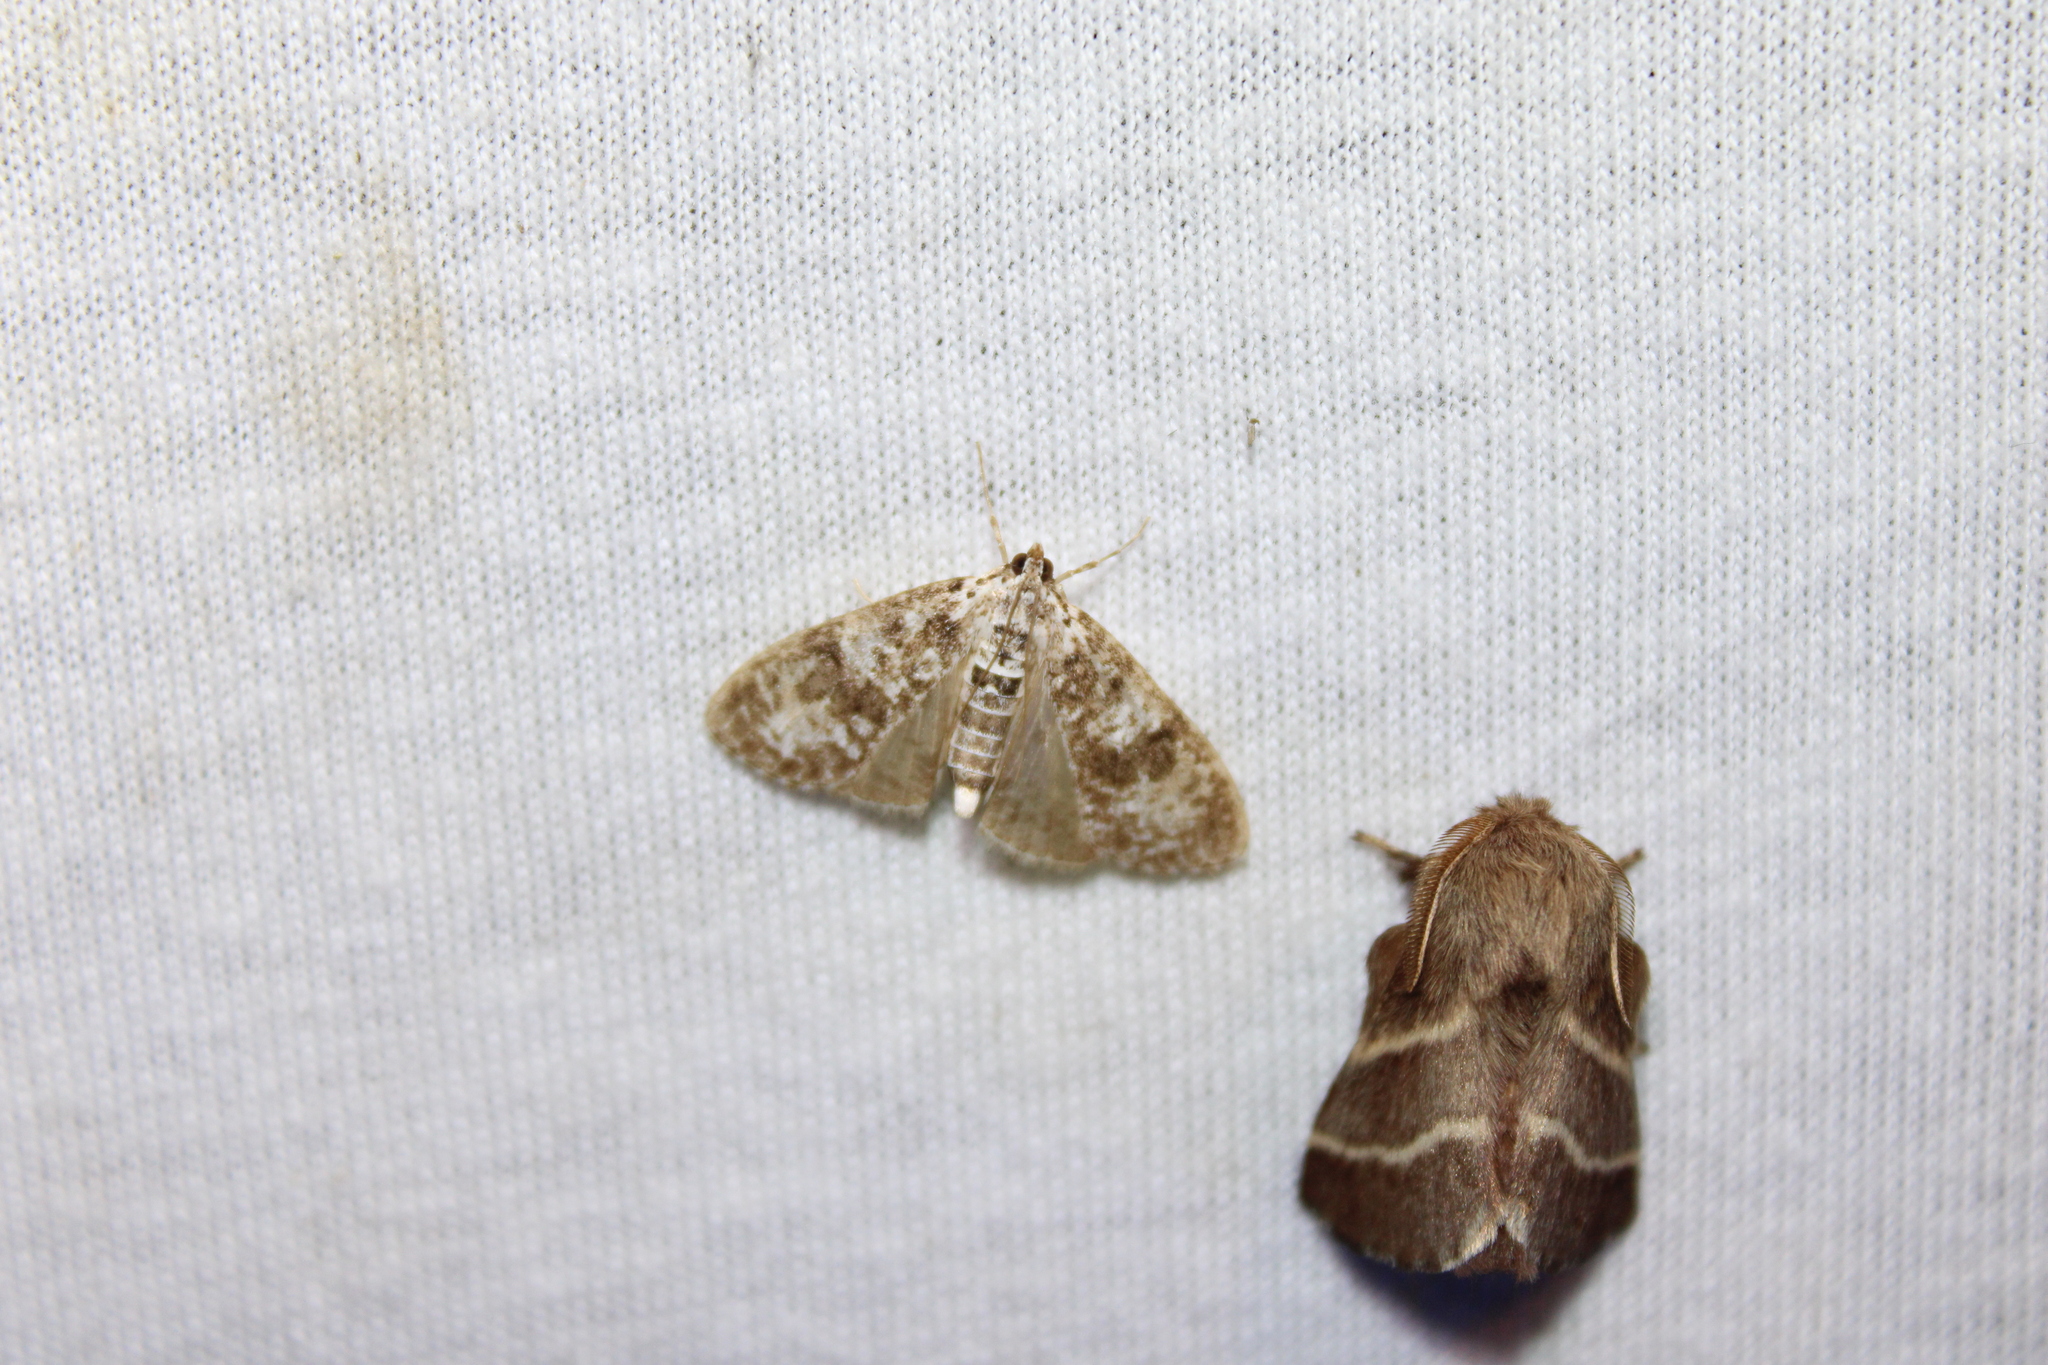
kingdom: Animalia
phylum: Arthropoda
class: Insecta
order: Lepidoptera
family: Crambidae
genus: Palpita
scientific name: Palpita magniferalis
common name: Splendid palpita moth
